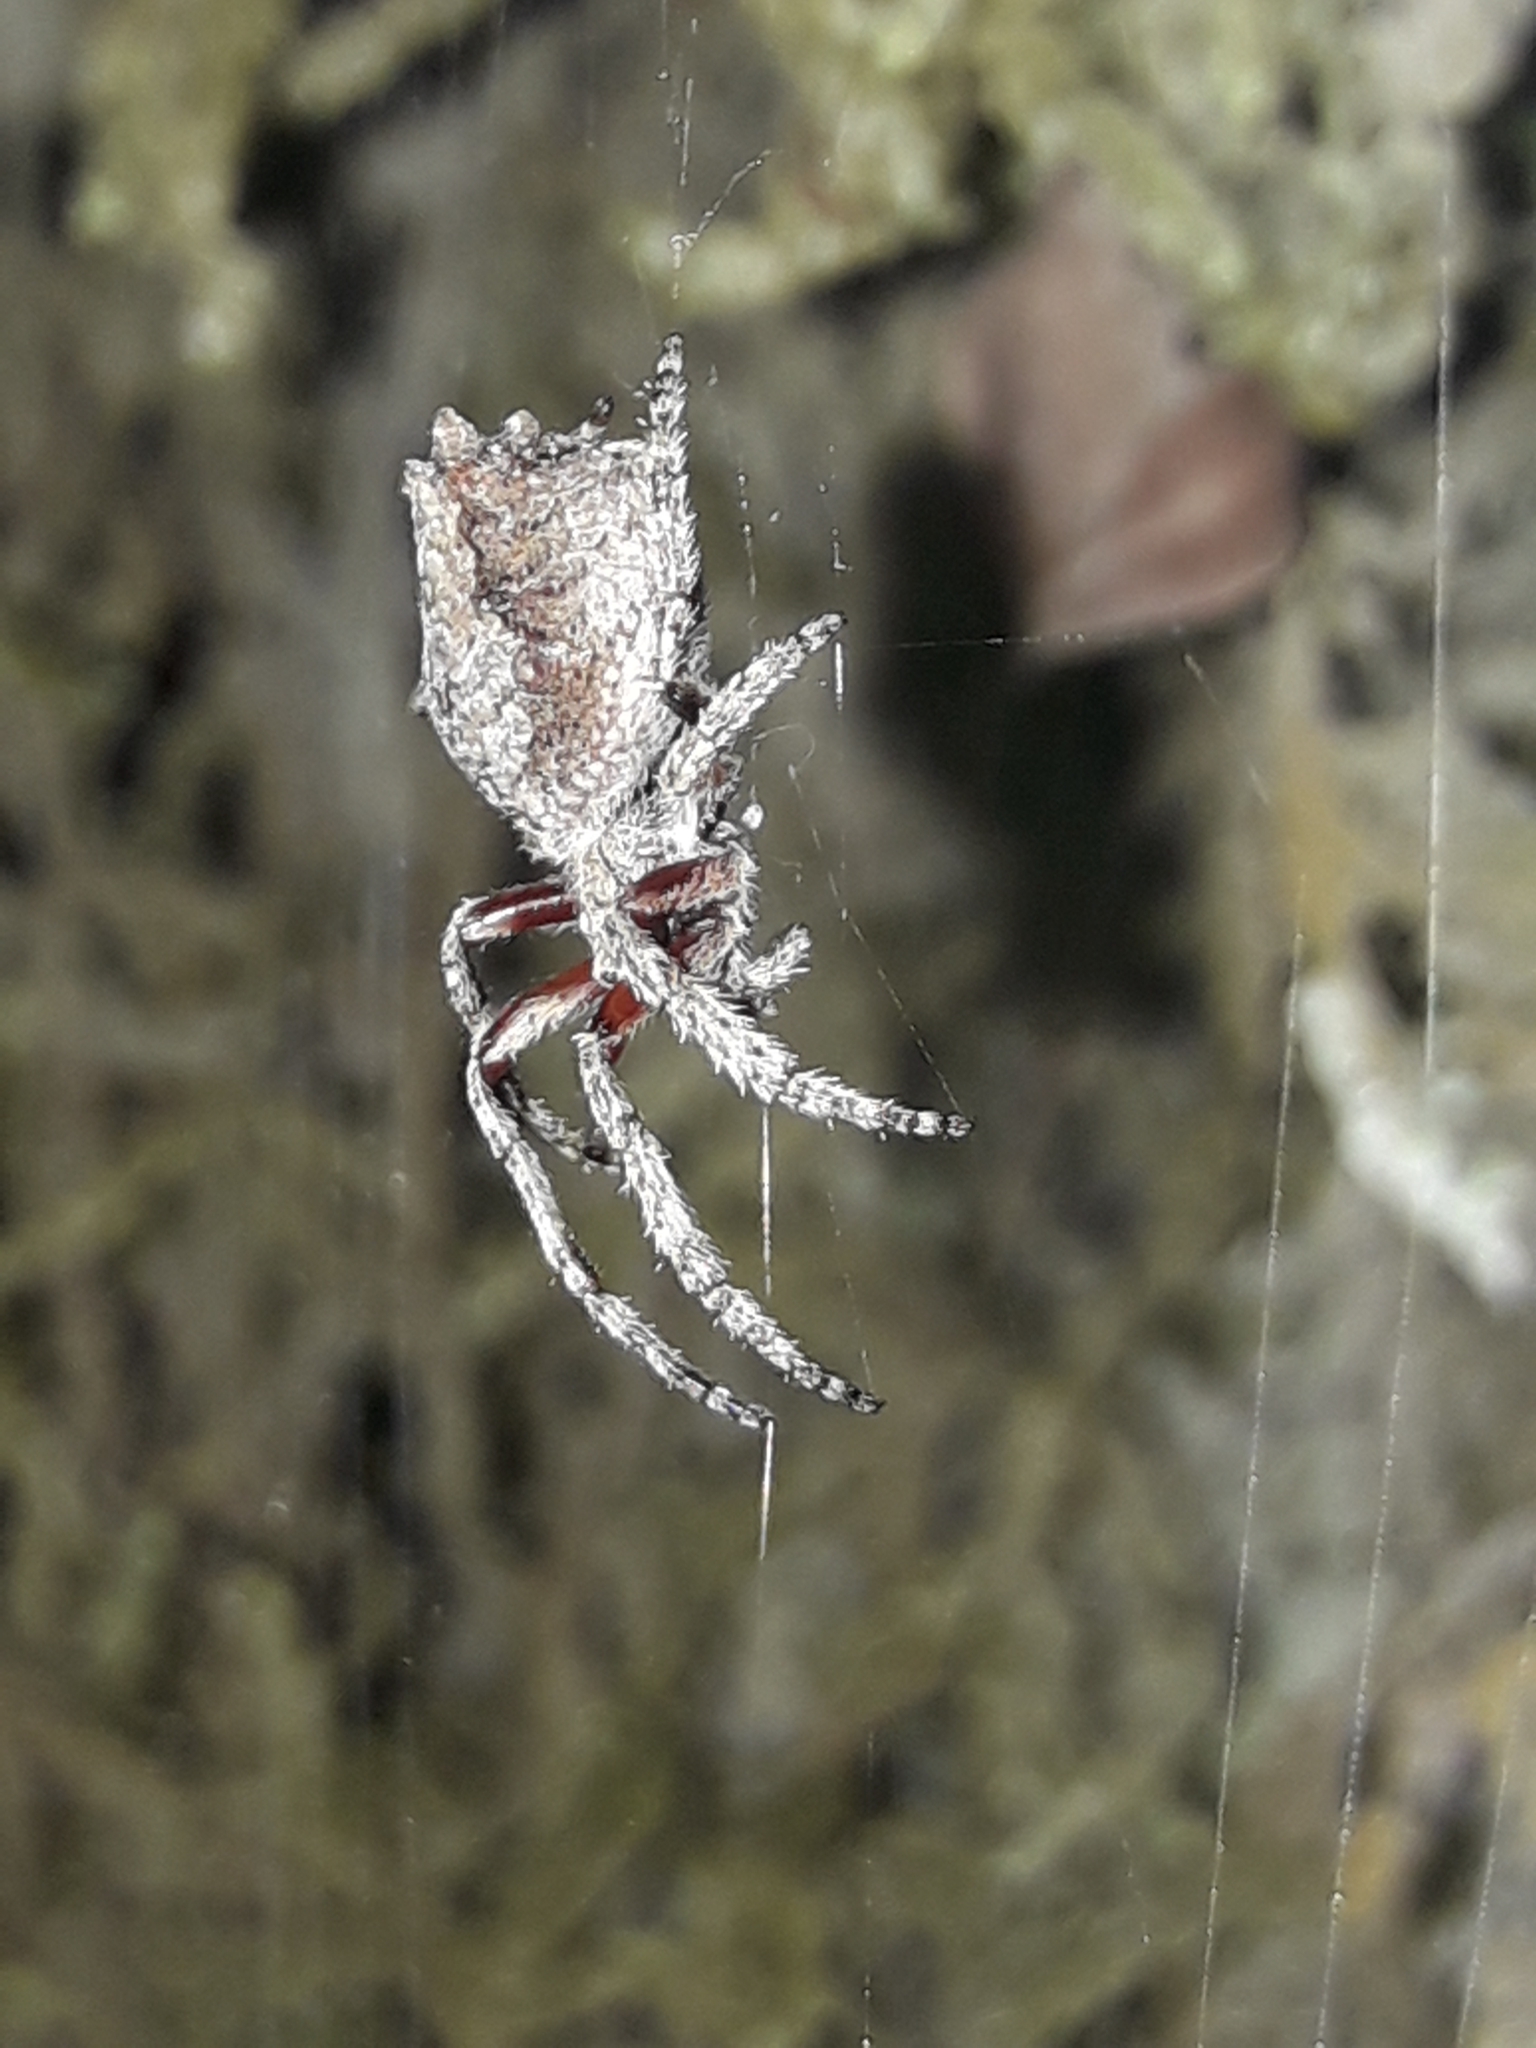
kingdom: Animalia
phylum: Arthropoda
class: Arachnida
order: Araneae
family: Araneidae
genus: Eriophora
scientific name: Eriophora pustulosa
